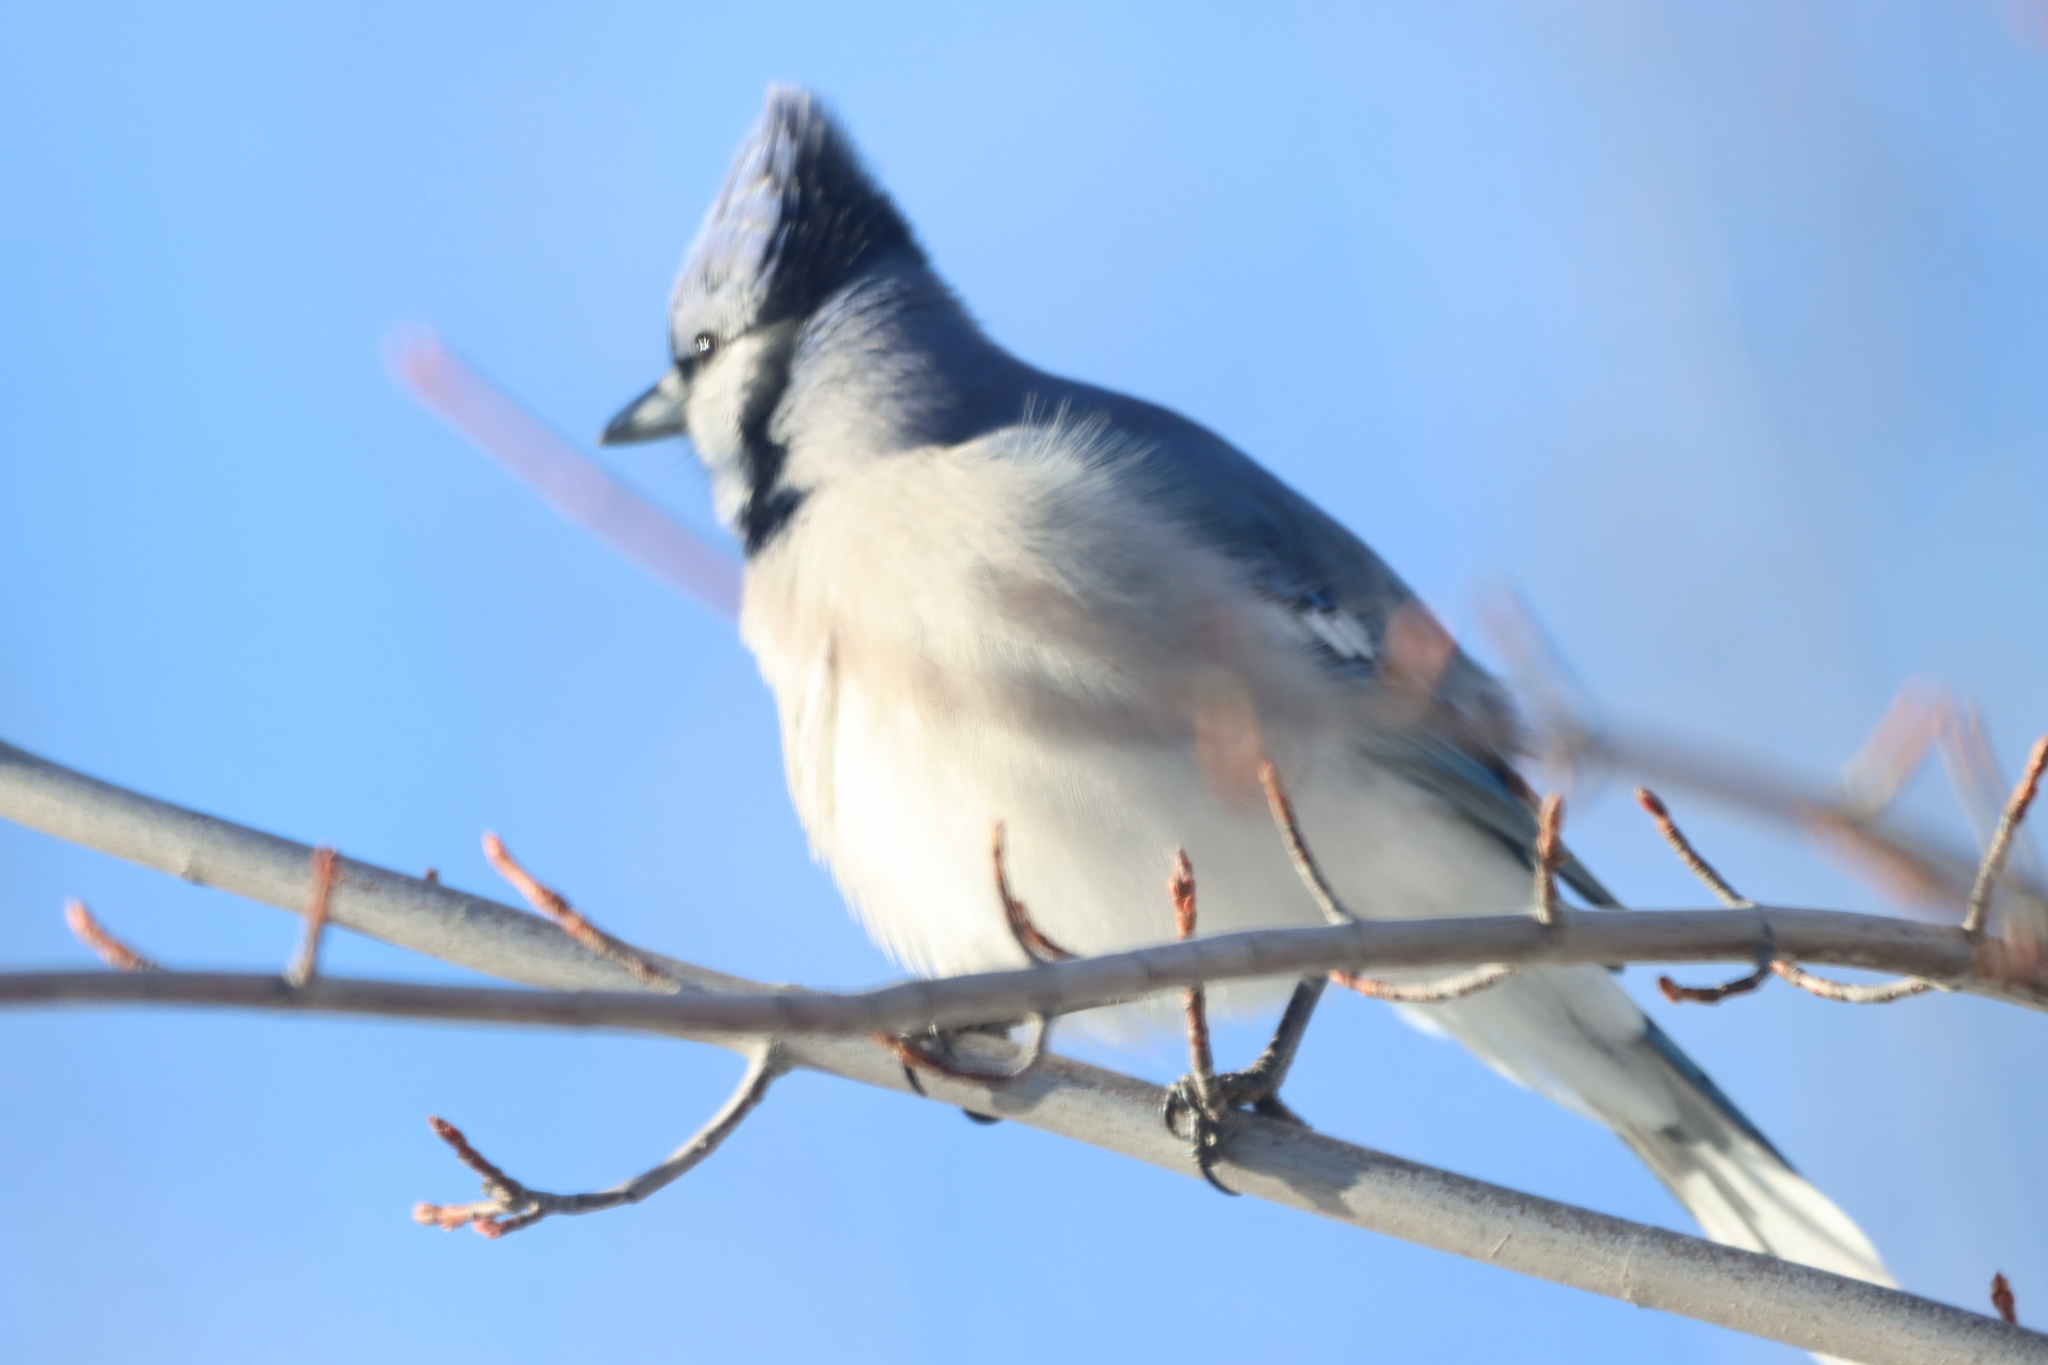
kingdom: Animalia
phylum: Chordata
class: Aves
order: Passeriformes
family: Corvidae
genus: Cyanocitta
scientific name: Cyanocitta cristata
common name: Blue jay
